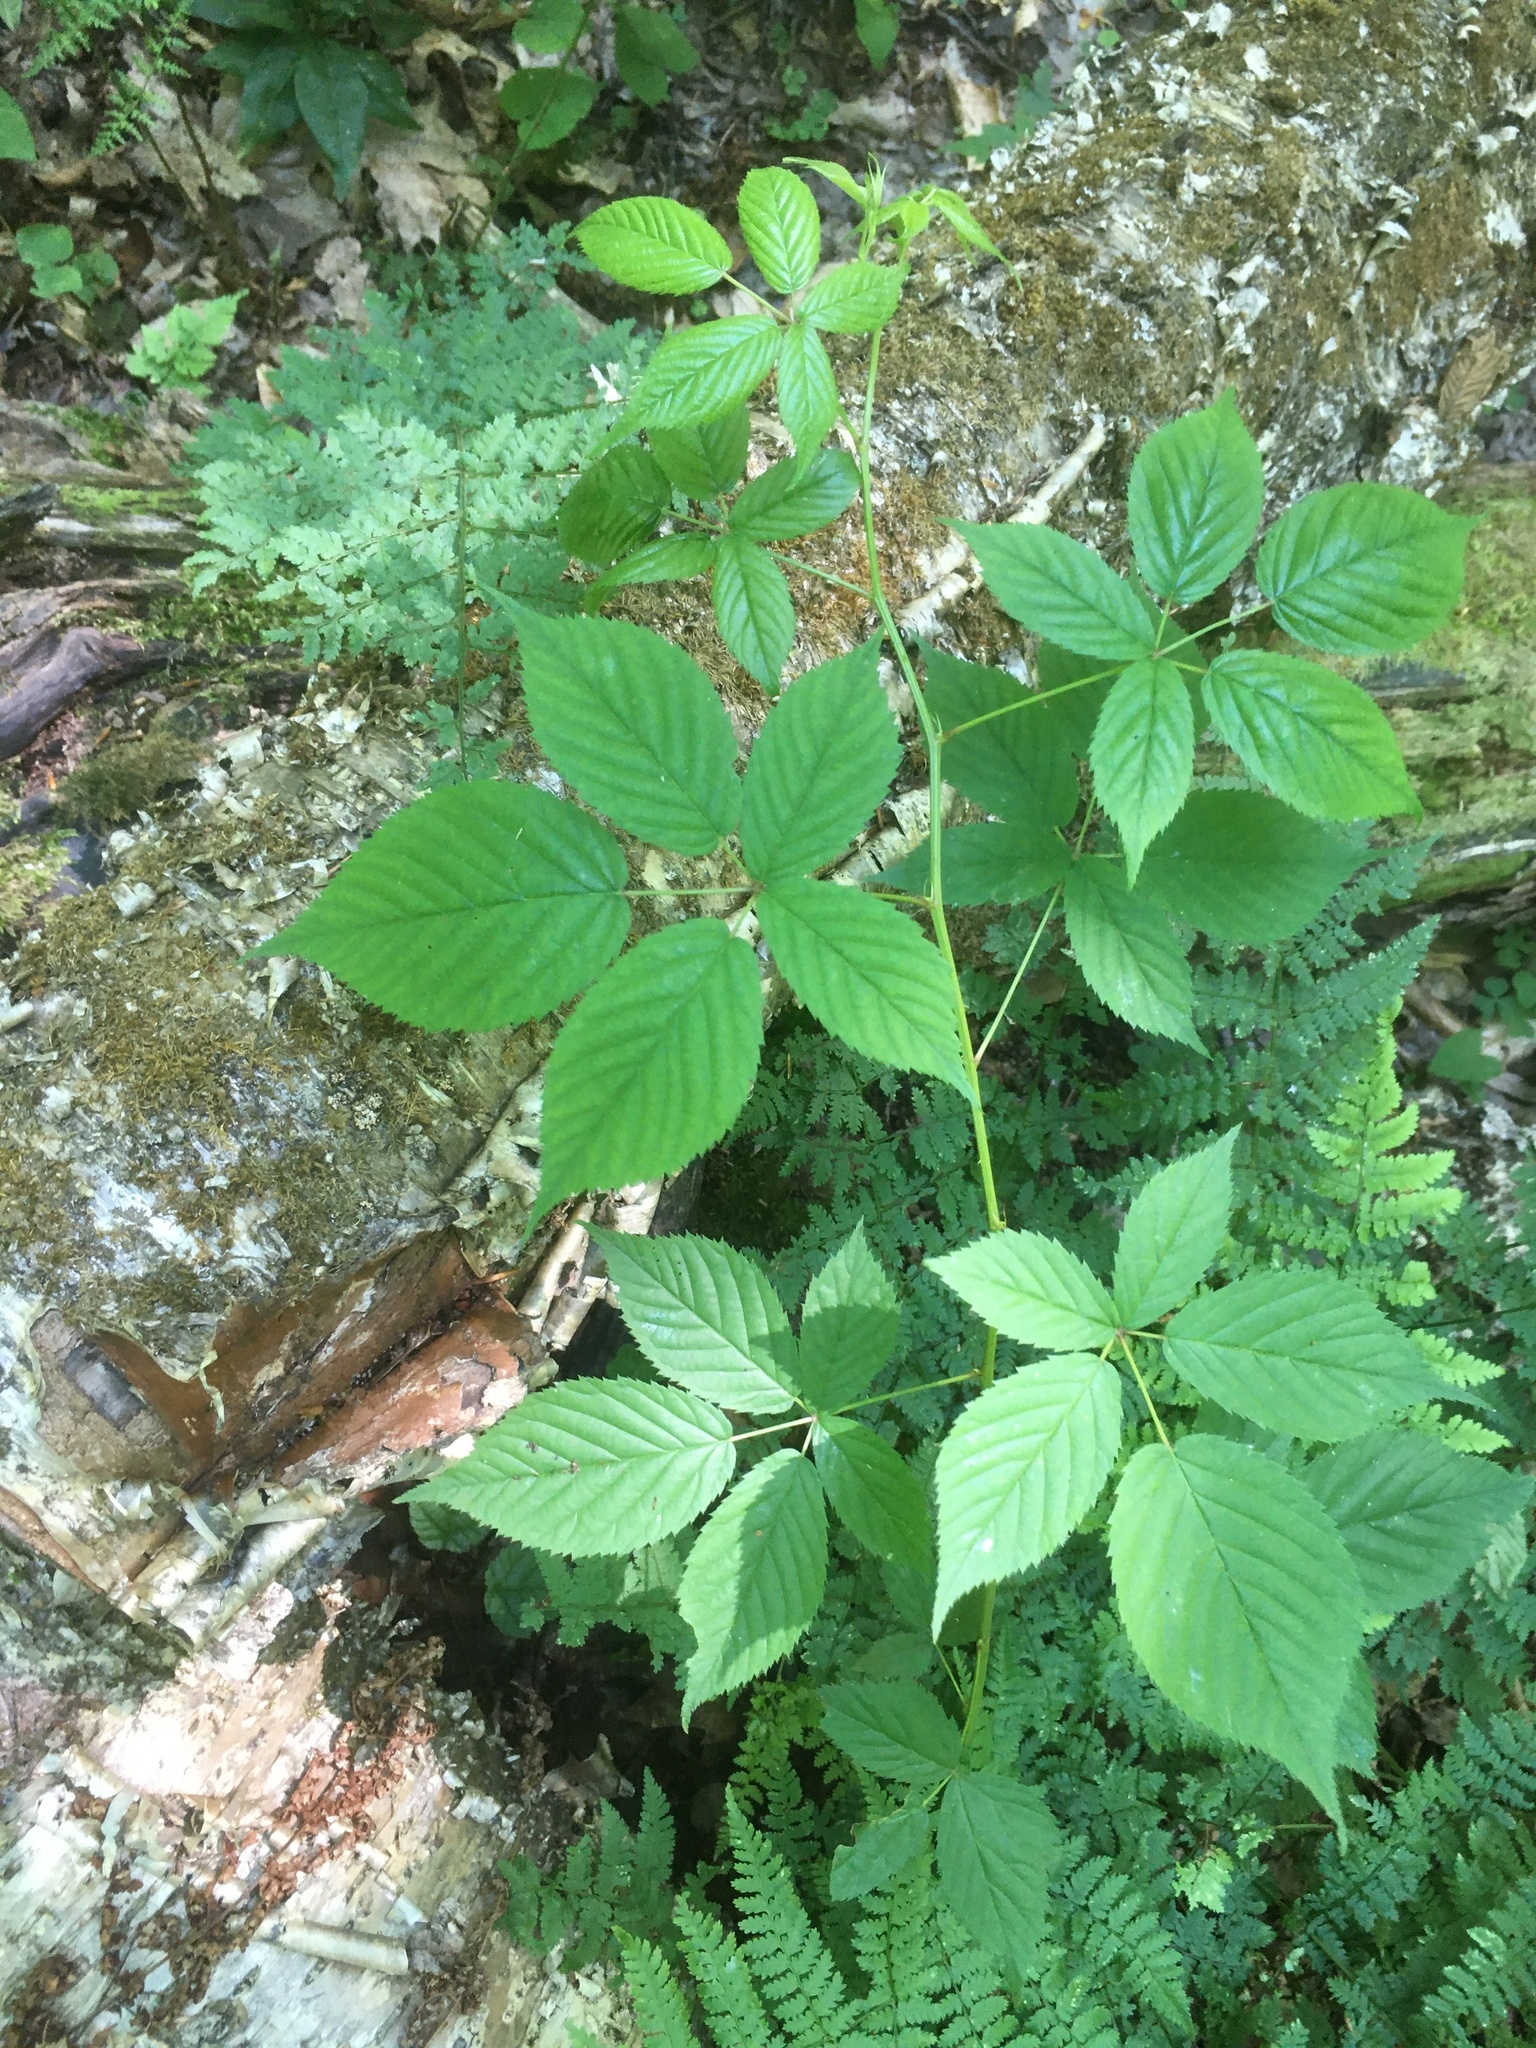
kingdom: Plantae
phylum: Tracheophyta
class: Magnoliopsida
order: Rosales
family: Rosaceae
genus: Rubus
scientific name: Rubus canadensis
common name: Smooth blackberry
